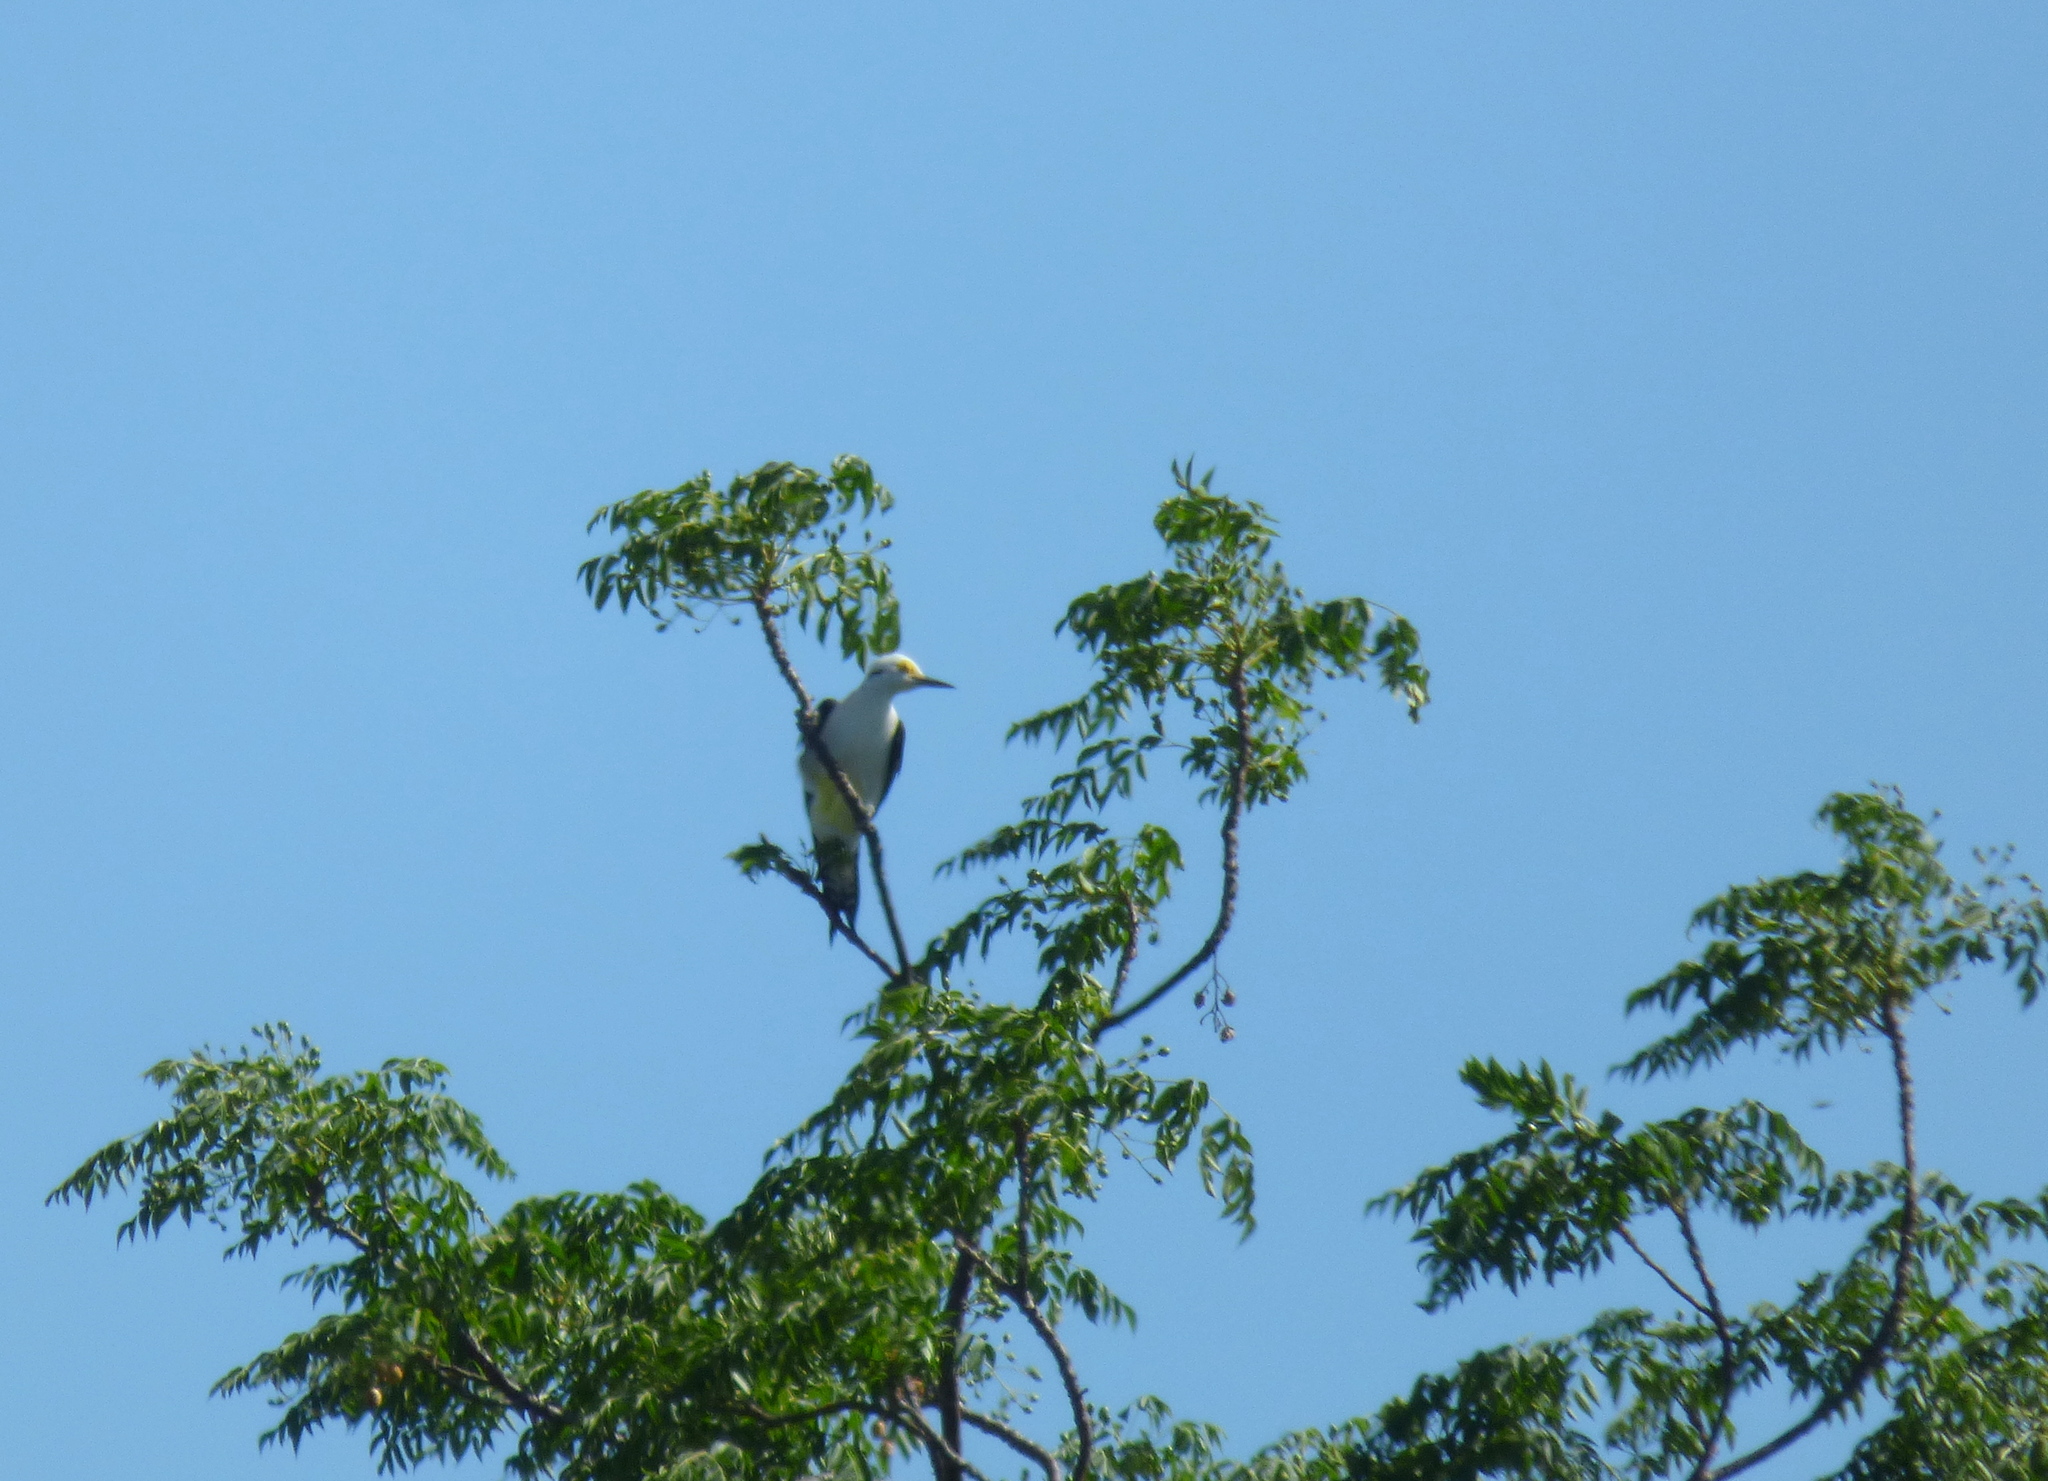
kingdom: Animalia
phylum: Chordata
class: Aves
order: Piciformes
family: Picidae
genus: Melanerpes
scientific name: Melanerpes candidus
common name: White woodpecker
